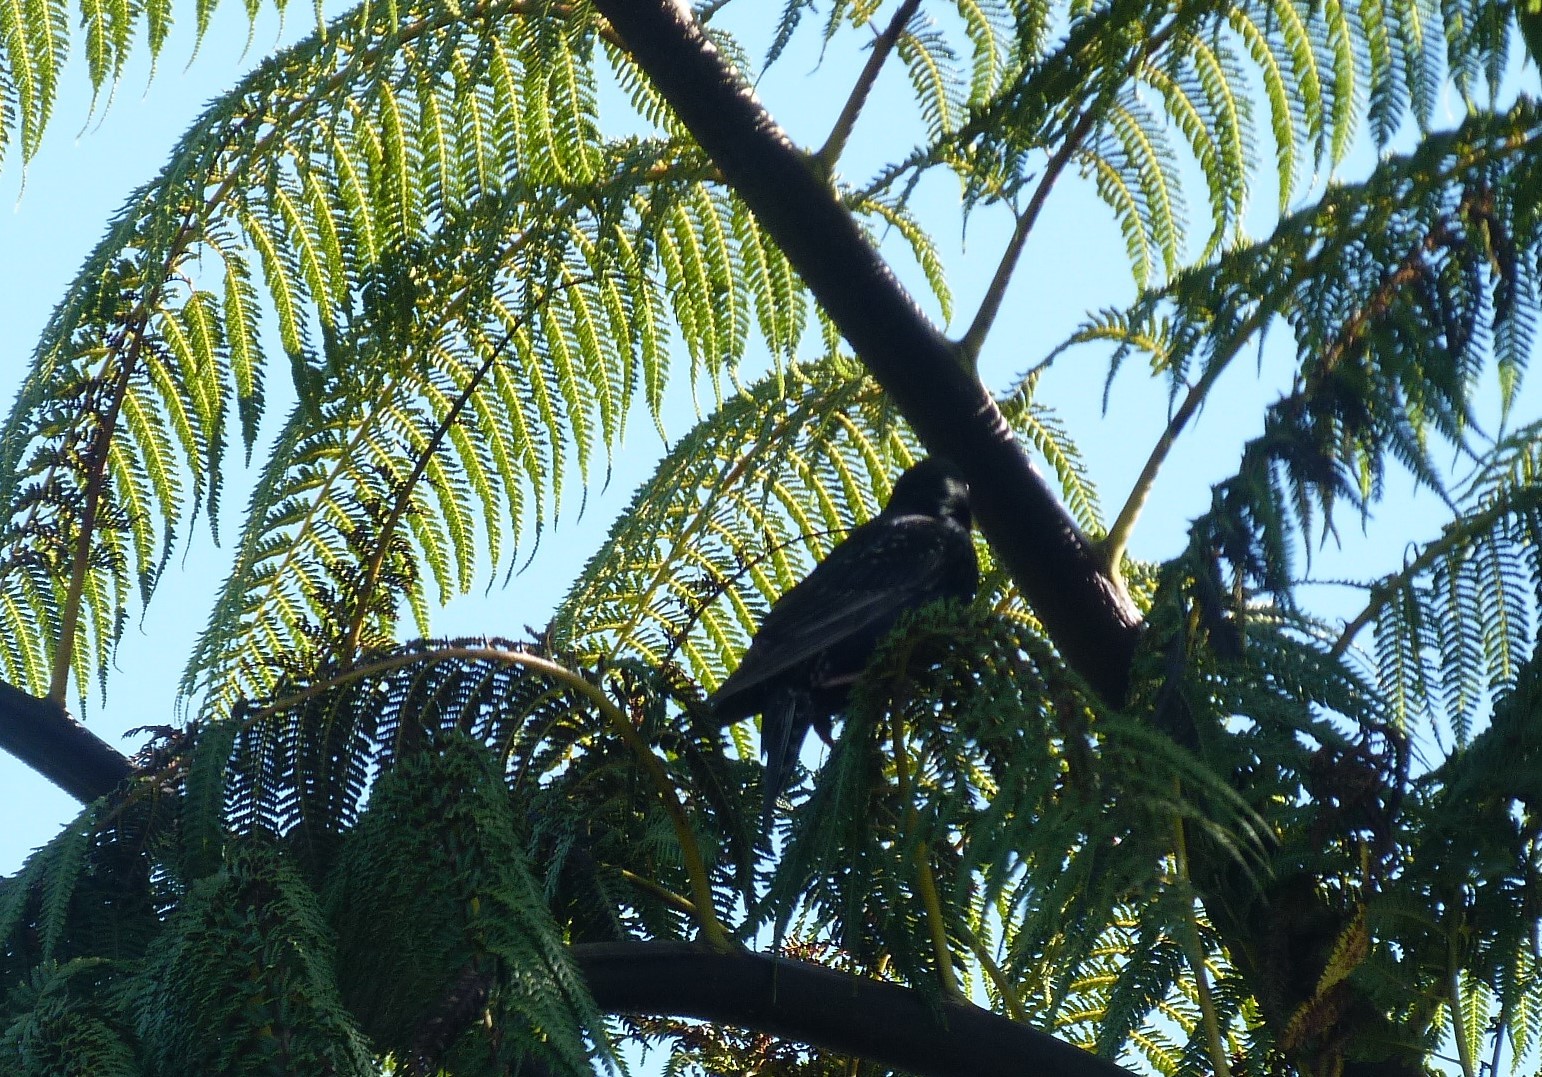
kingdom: Animalia
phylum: Chordata
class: Aves
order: Passeriformes
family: Sturnidae
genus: Sturnus
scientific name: Sturnus vulgaris
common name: Common starling
